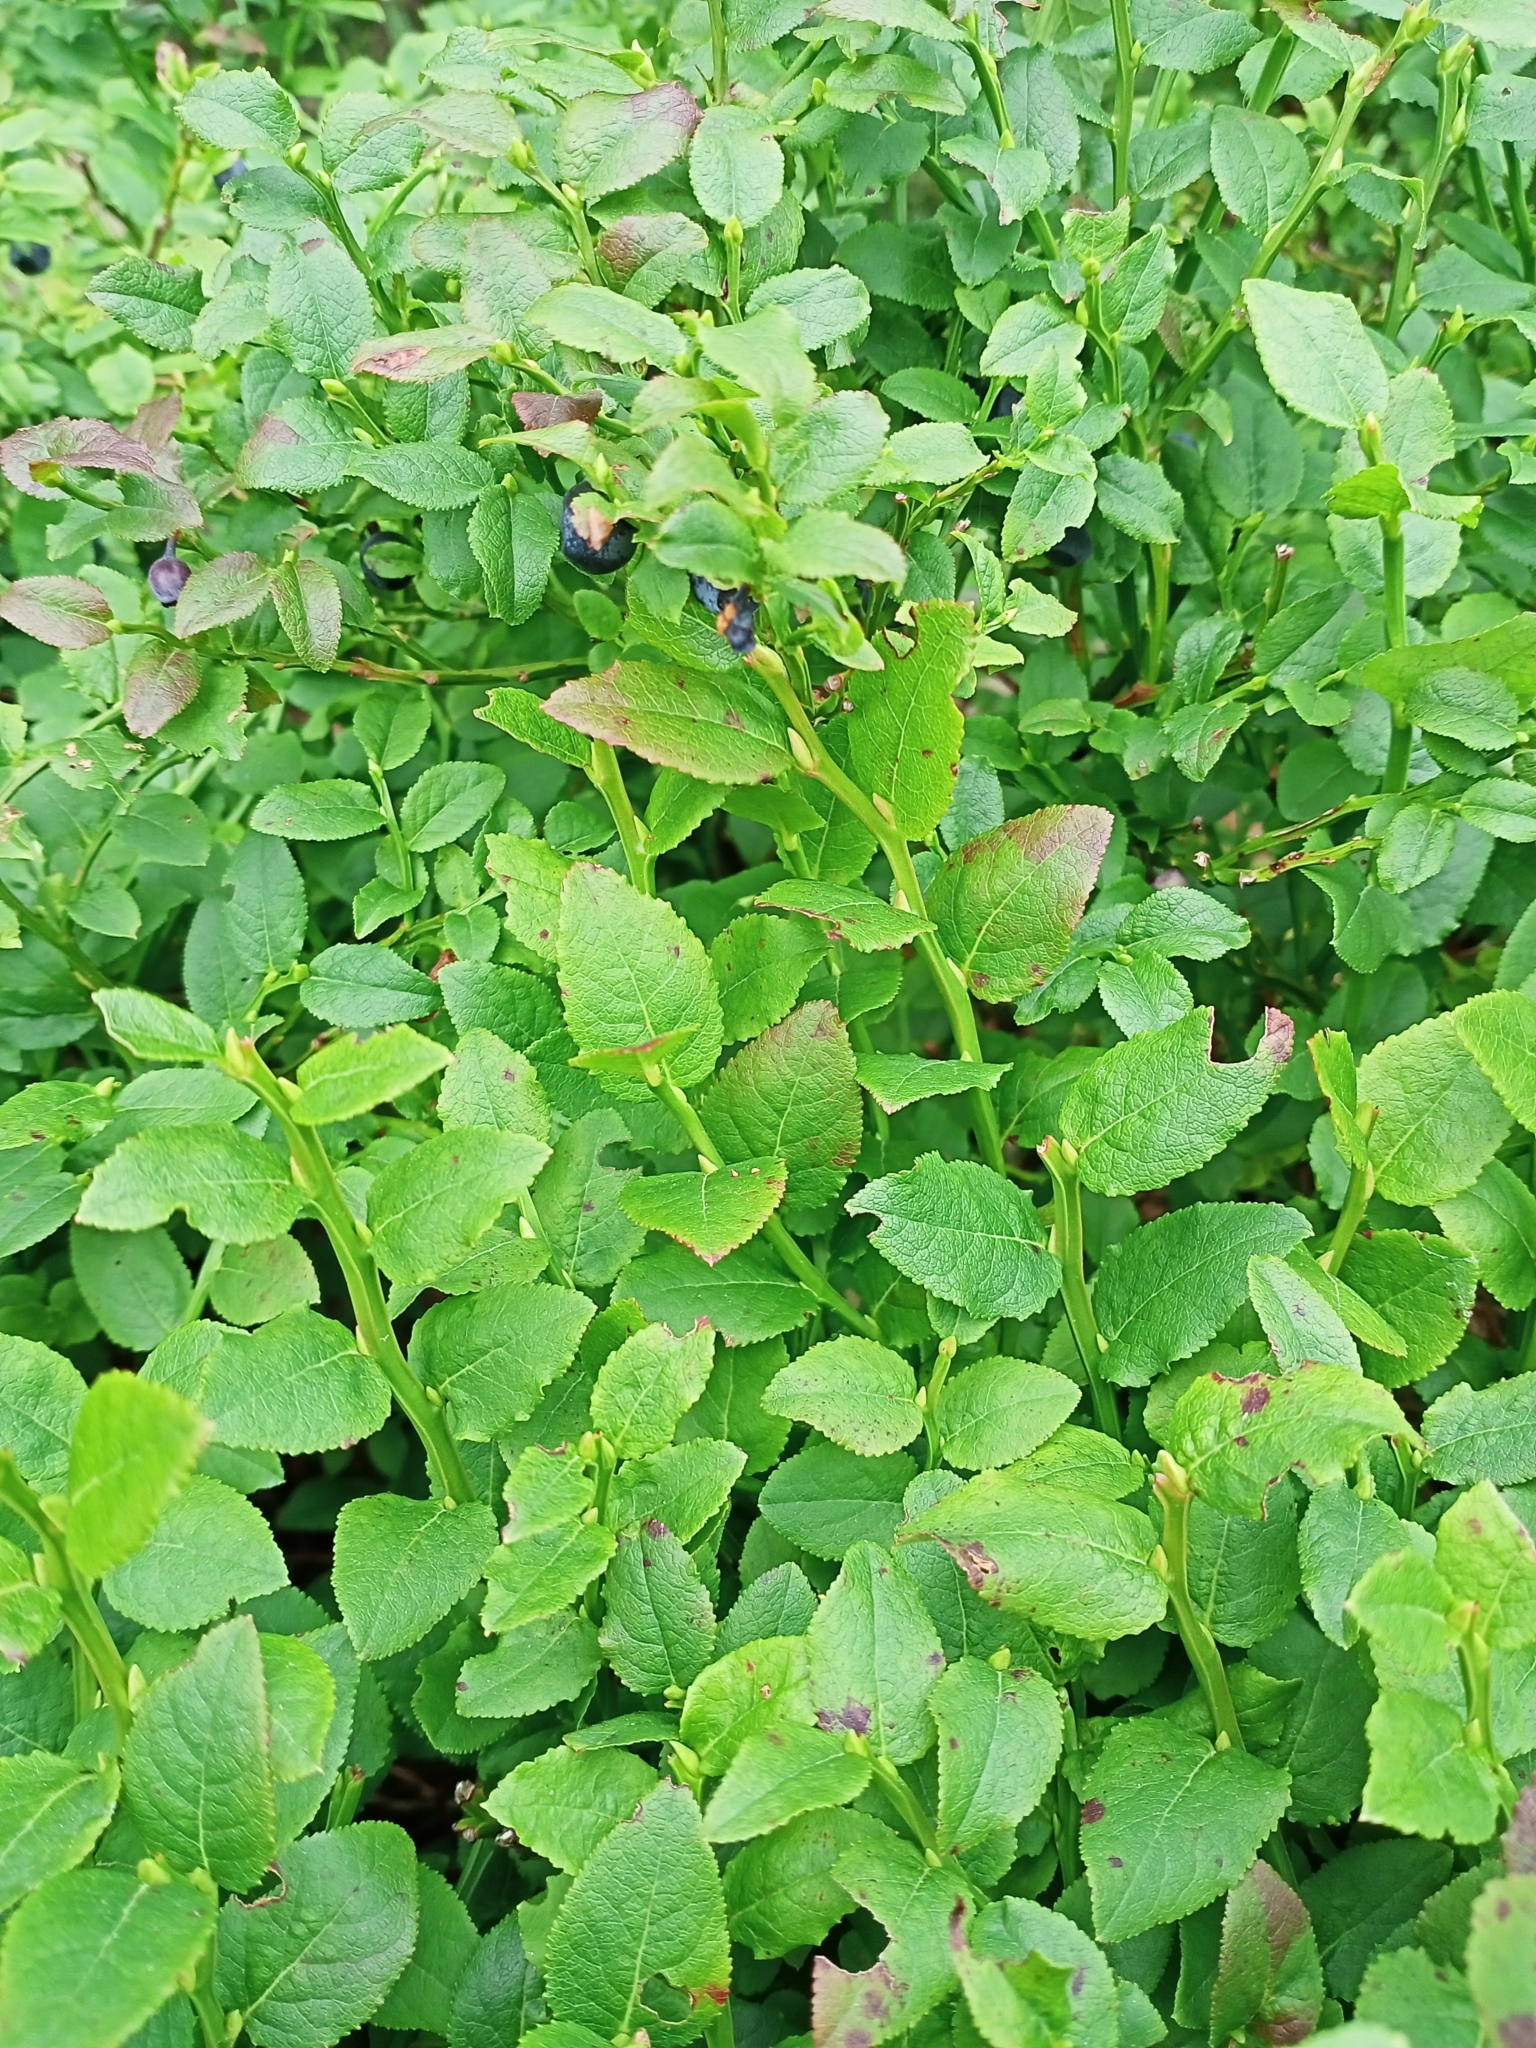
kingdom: Plantae
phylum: Tracheophyta
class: Magnoliopsida
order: Ericales
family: Ericaceae
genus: Vaccinium
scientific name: Vaccinium myrtillus
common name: Bilberry
